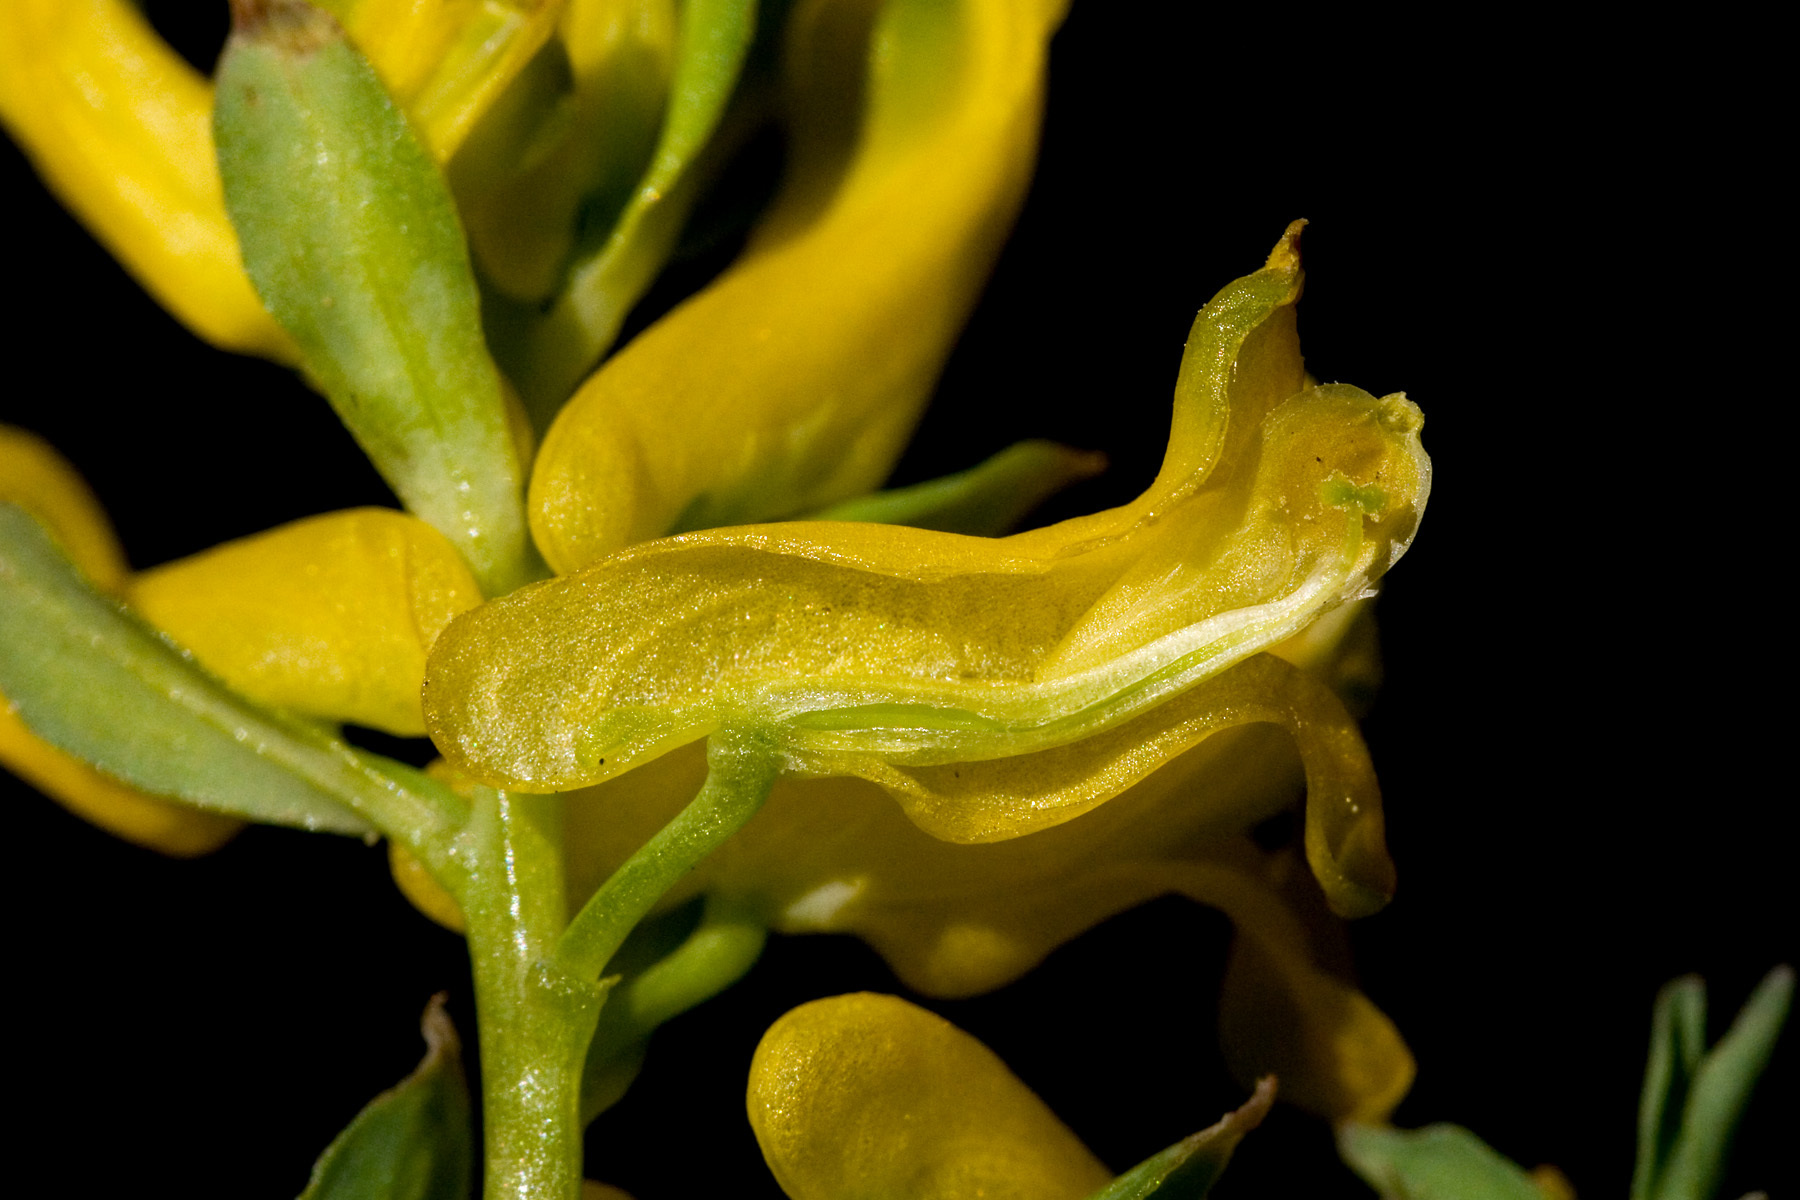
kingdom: Plantae
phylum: Tracheophyta
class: Magnoliopsida
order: Ranunculales
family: Papaveraceae
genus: Corydalis
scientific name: Corydalis aurea
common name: Golden corydalis
